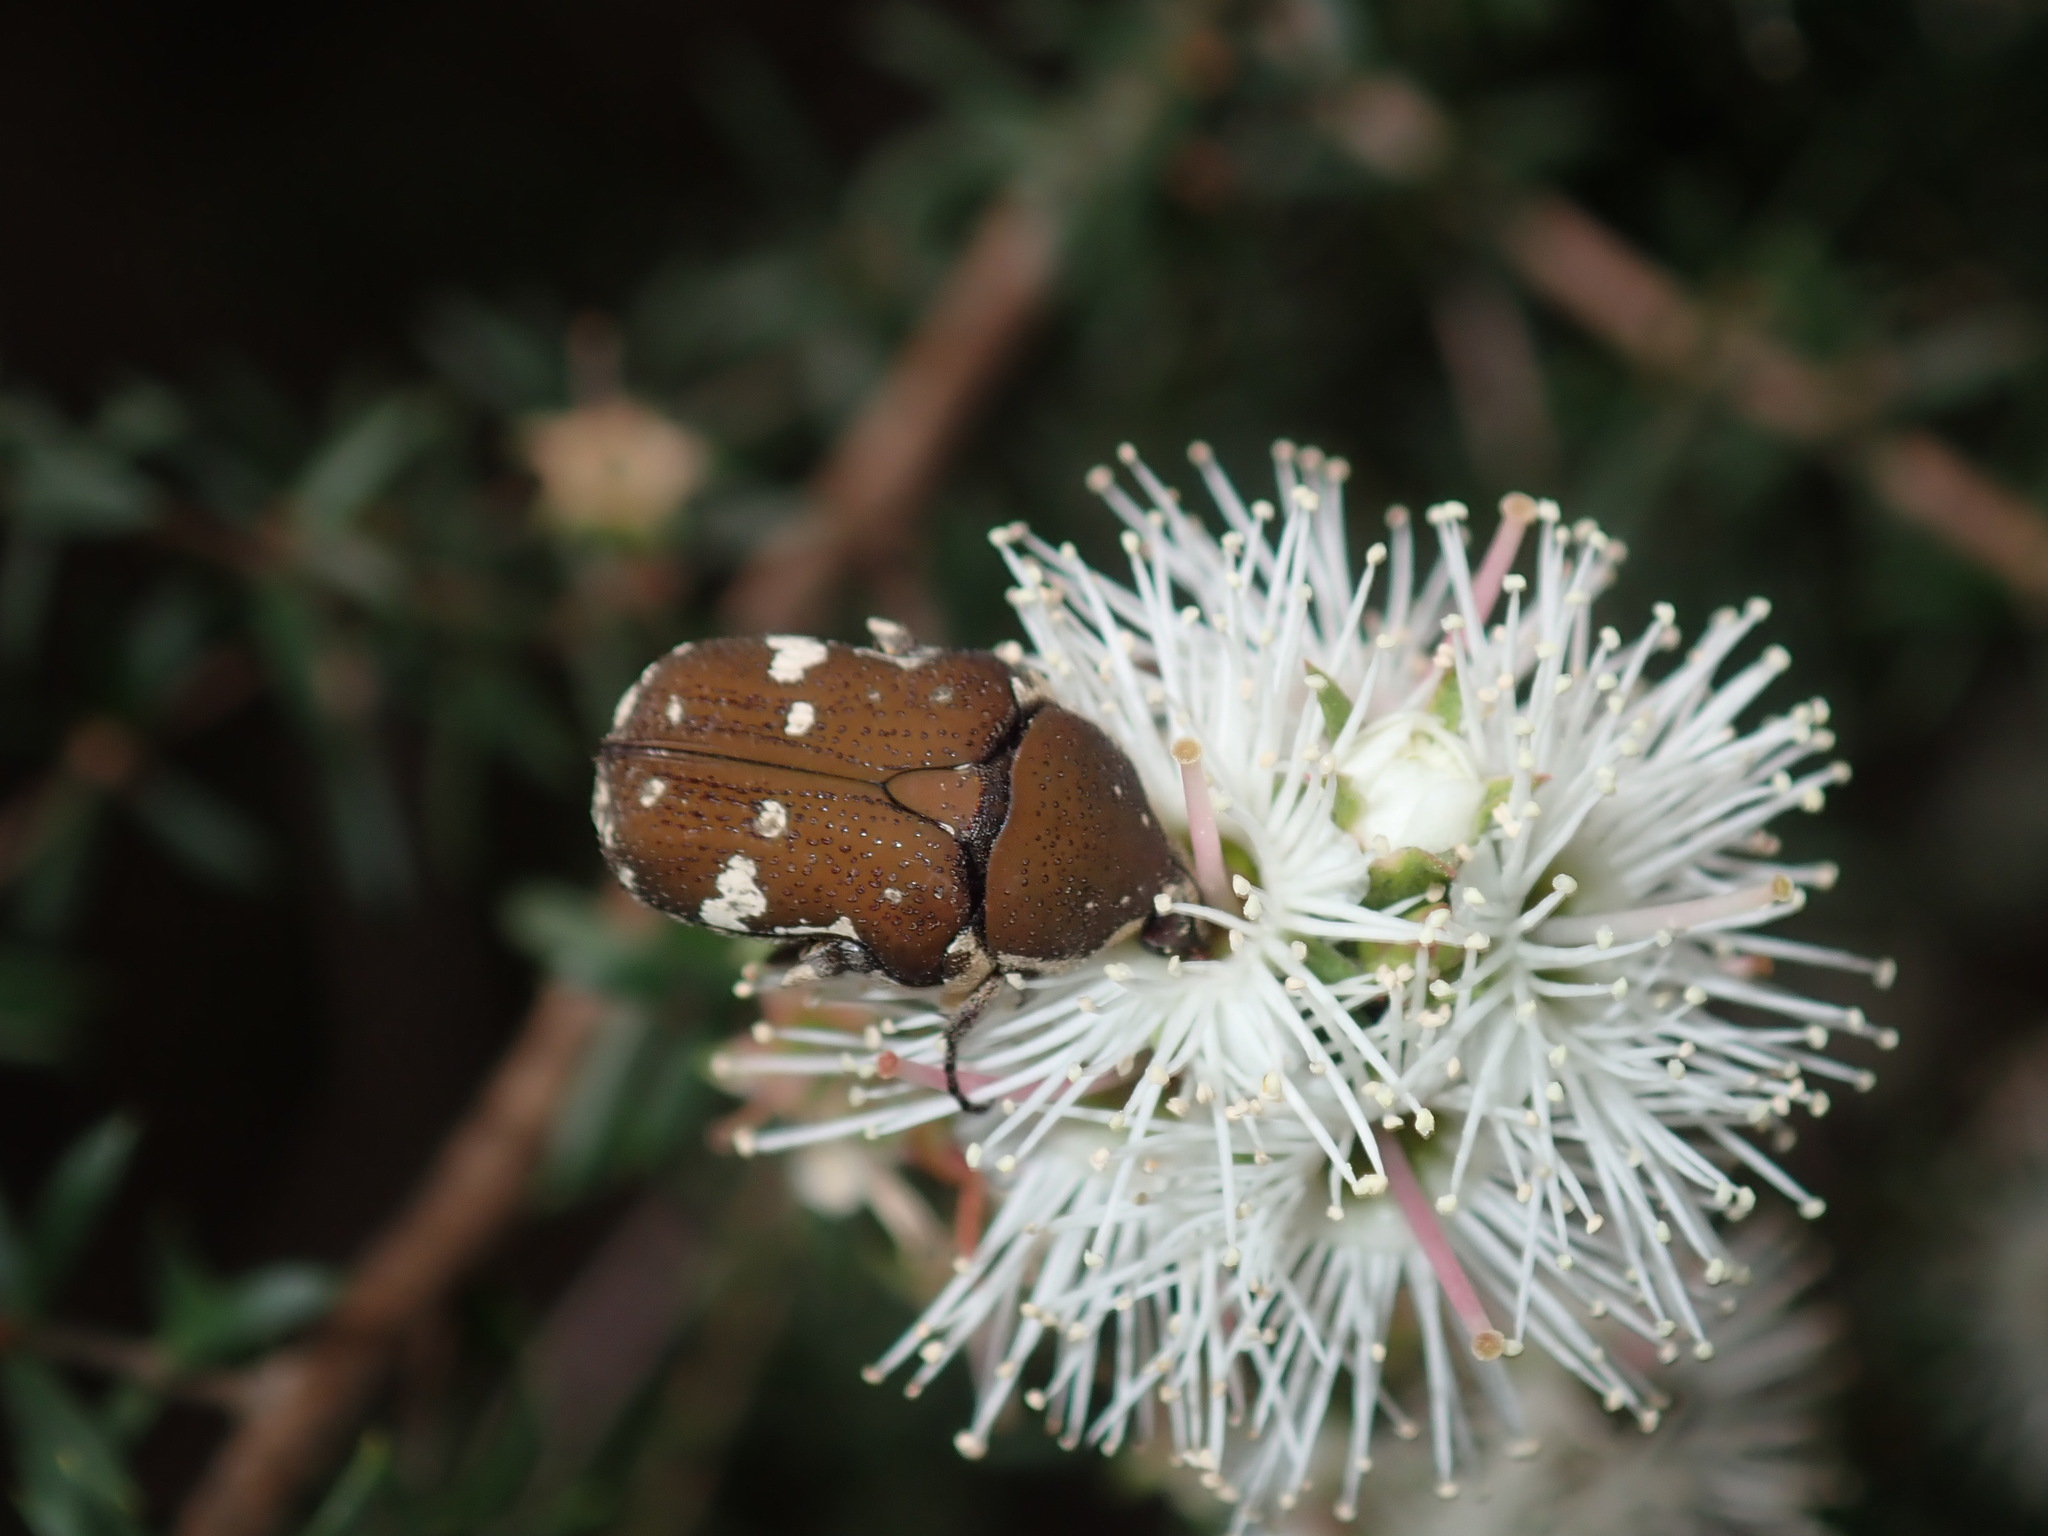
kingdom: Animalia
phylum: Arthropoda
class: Insecta
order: Coleoptera
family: Scarabaeidae
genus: Glycyphana
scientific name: Glycyphana stolata
